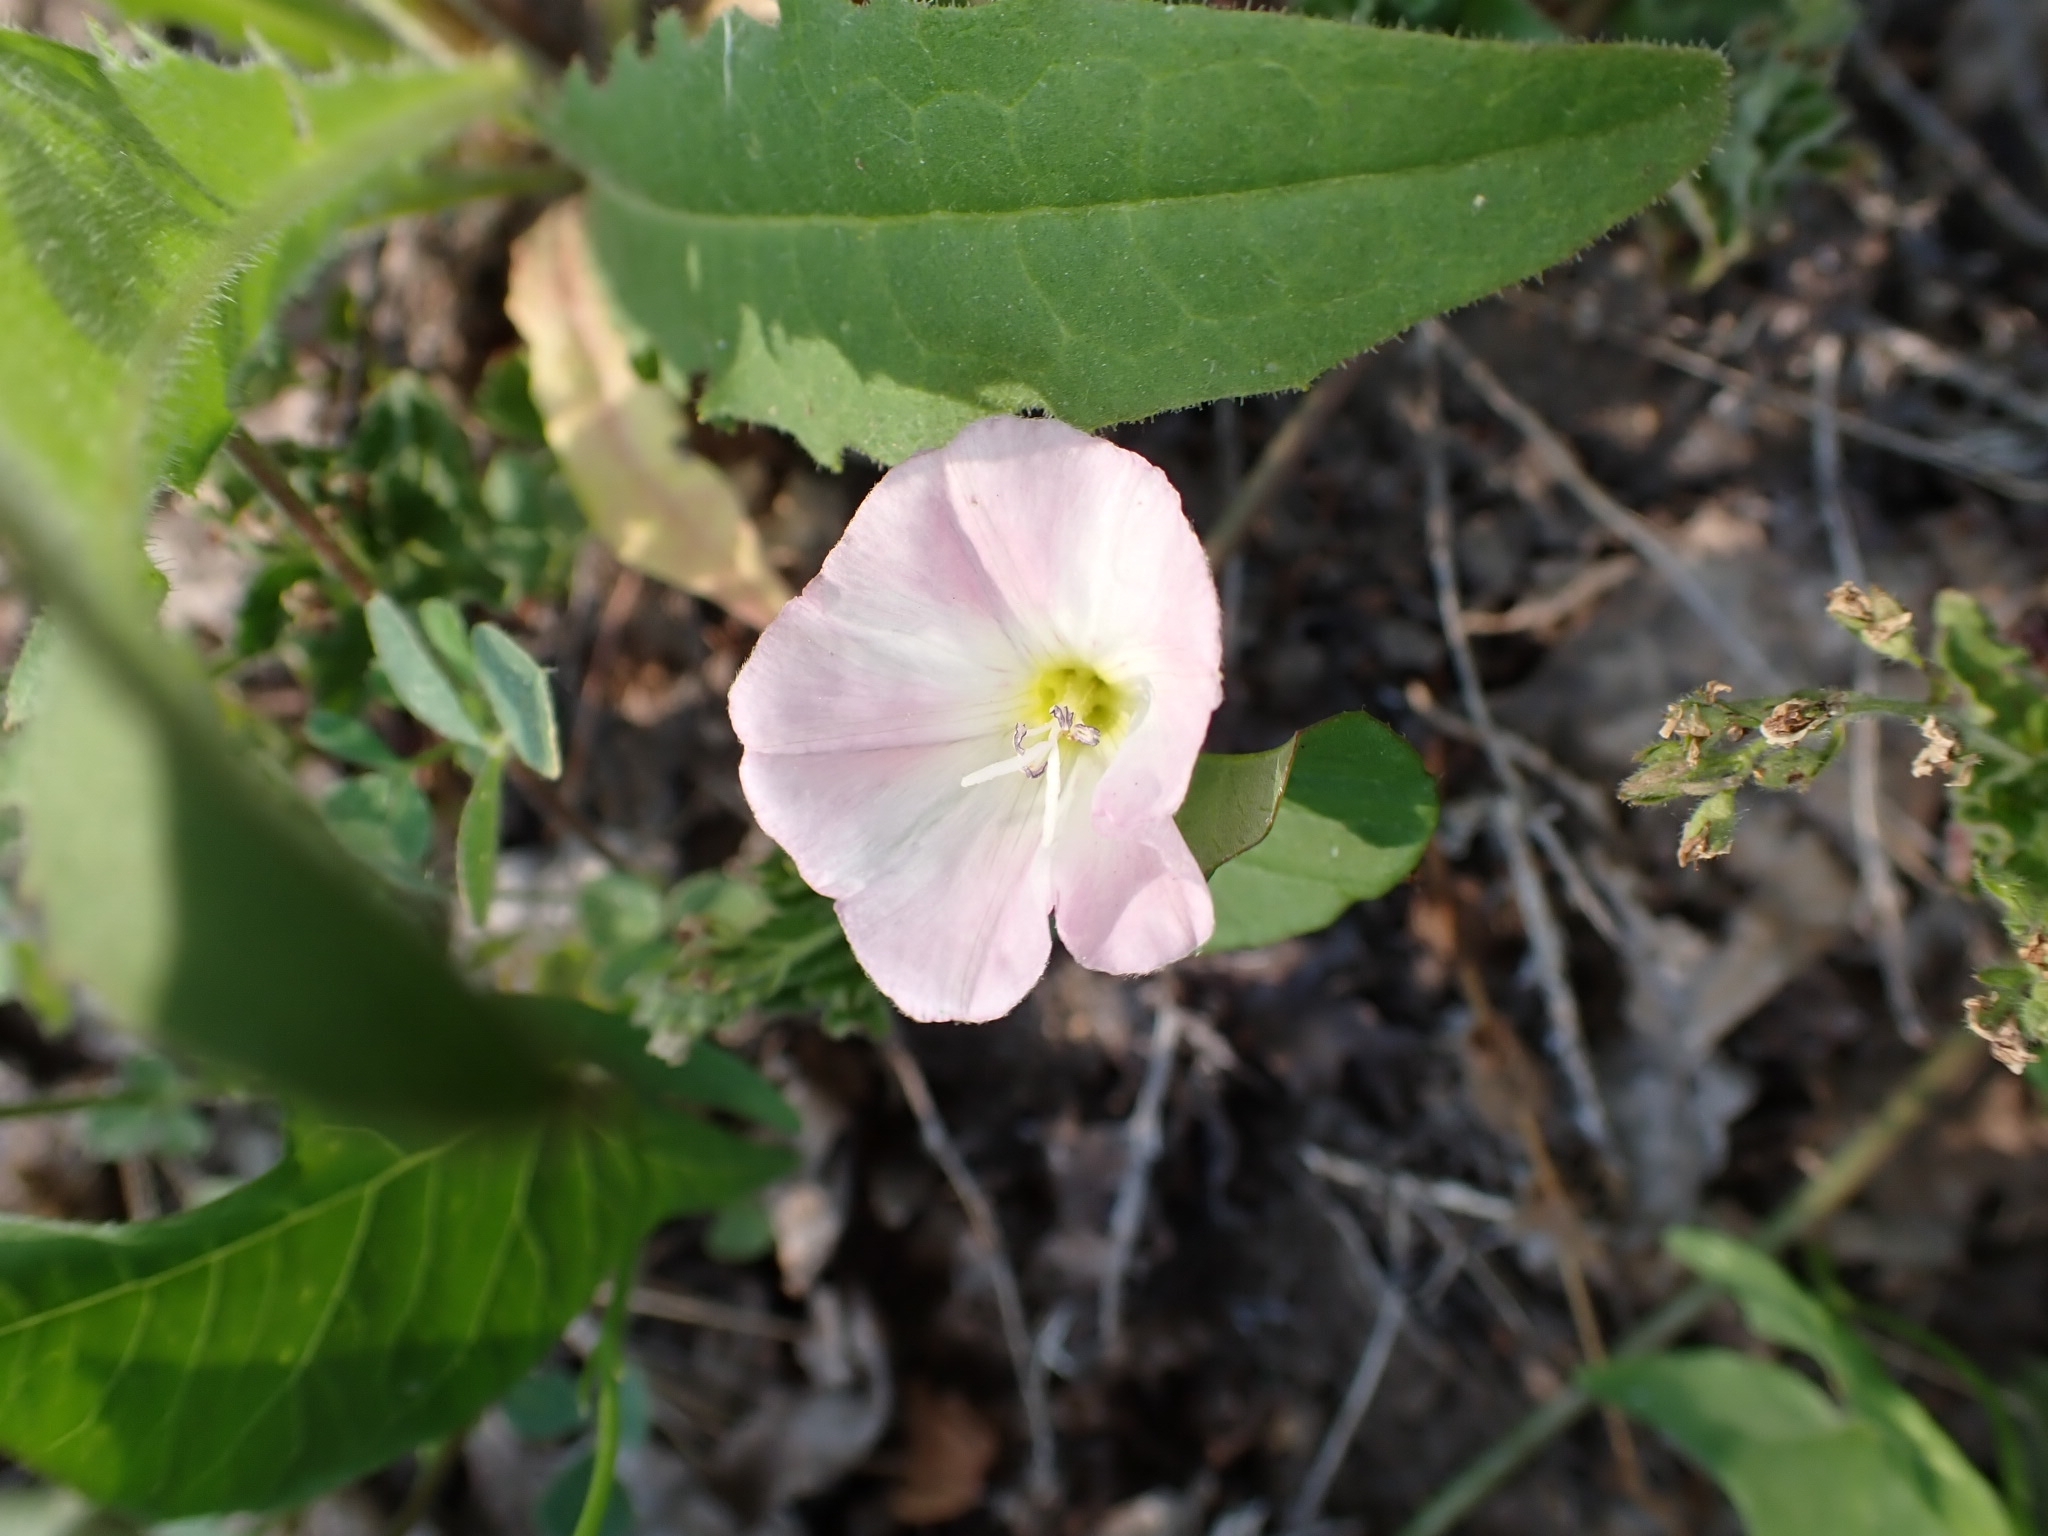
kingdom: Plantae
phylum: Tracheophyta
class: Magnoliopsida
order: Solanales
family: Convolvulaceae
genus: Convolvulus
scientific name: Convolvulus arvensis
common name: Field bindweed
